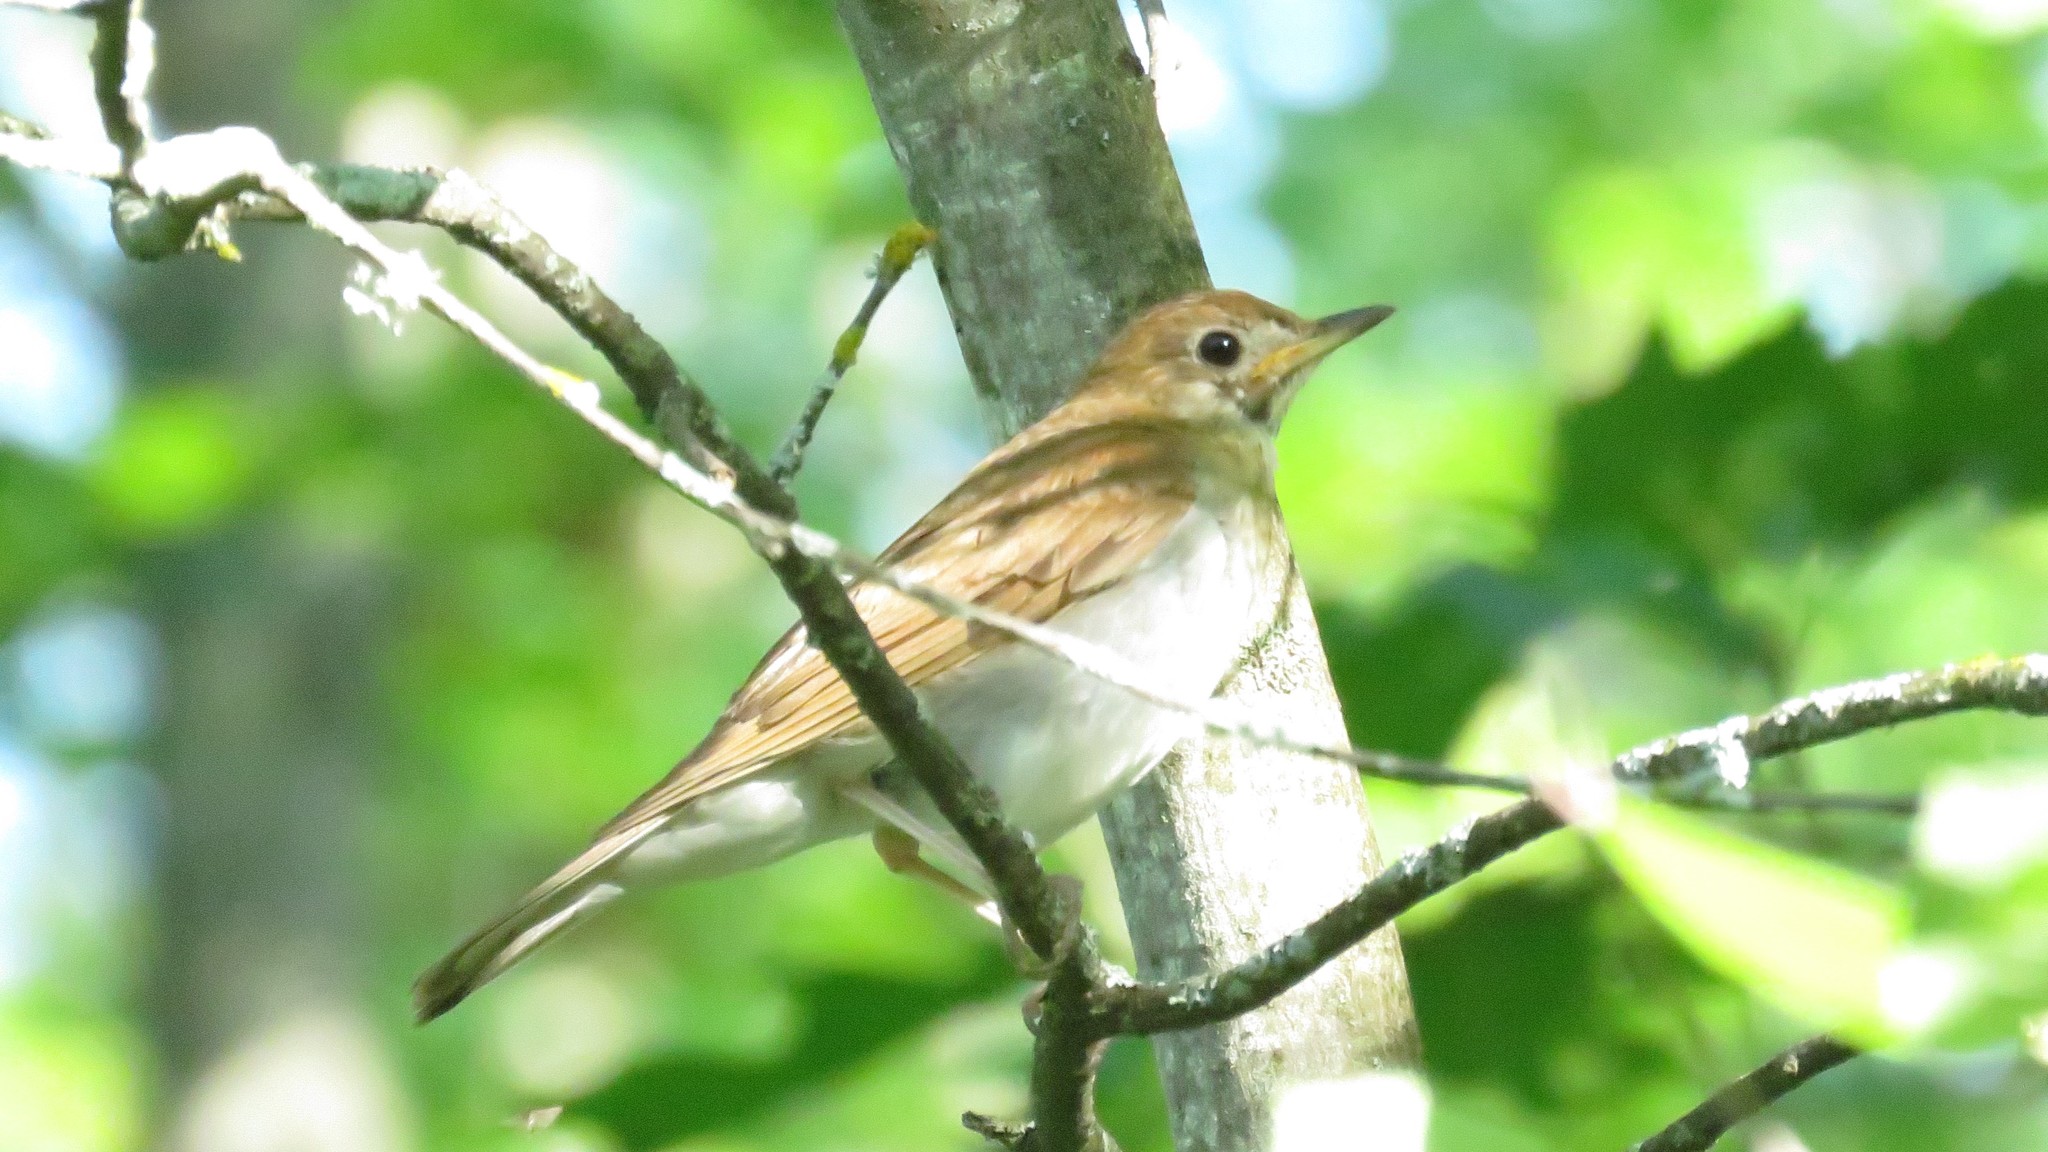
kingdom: Animalia
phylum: Chordata
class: Aves
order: Passeriformes
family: Turdidae
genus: Catharus
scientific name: Catharus fuscescens
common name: Veery
